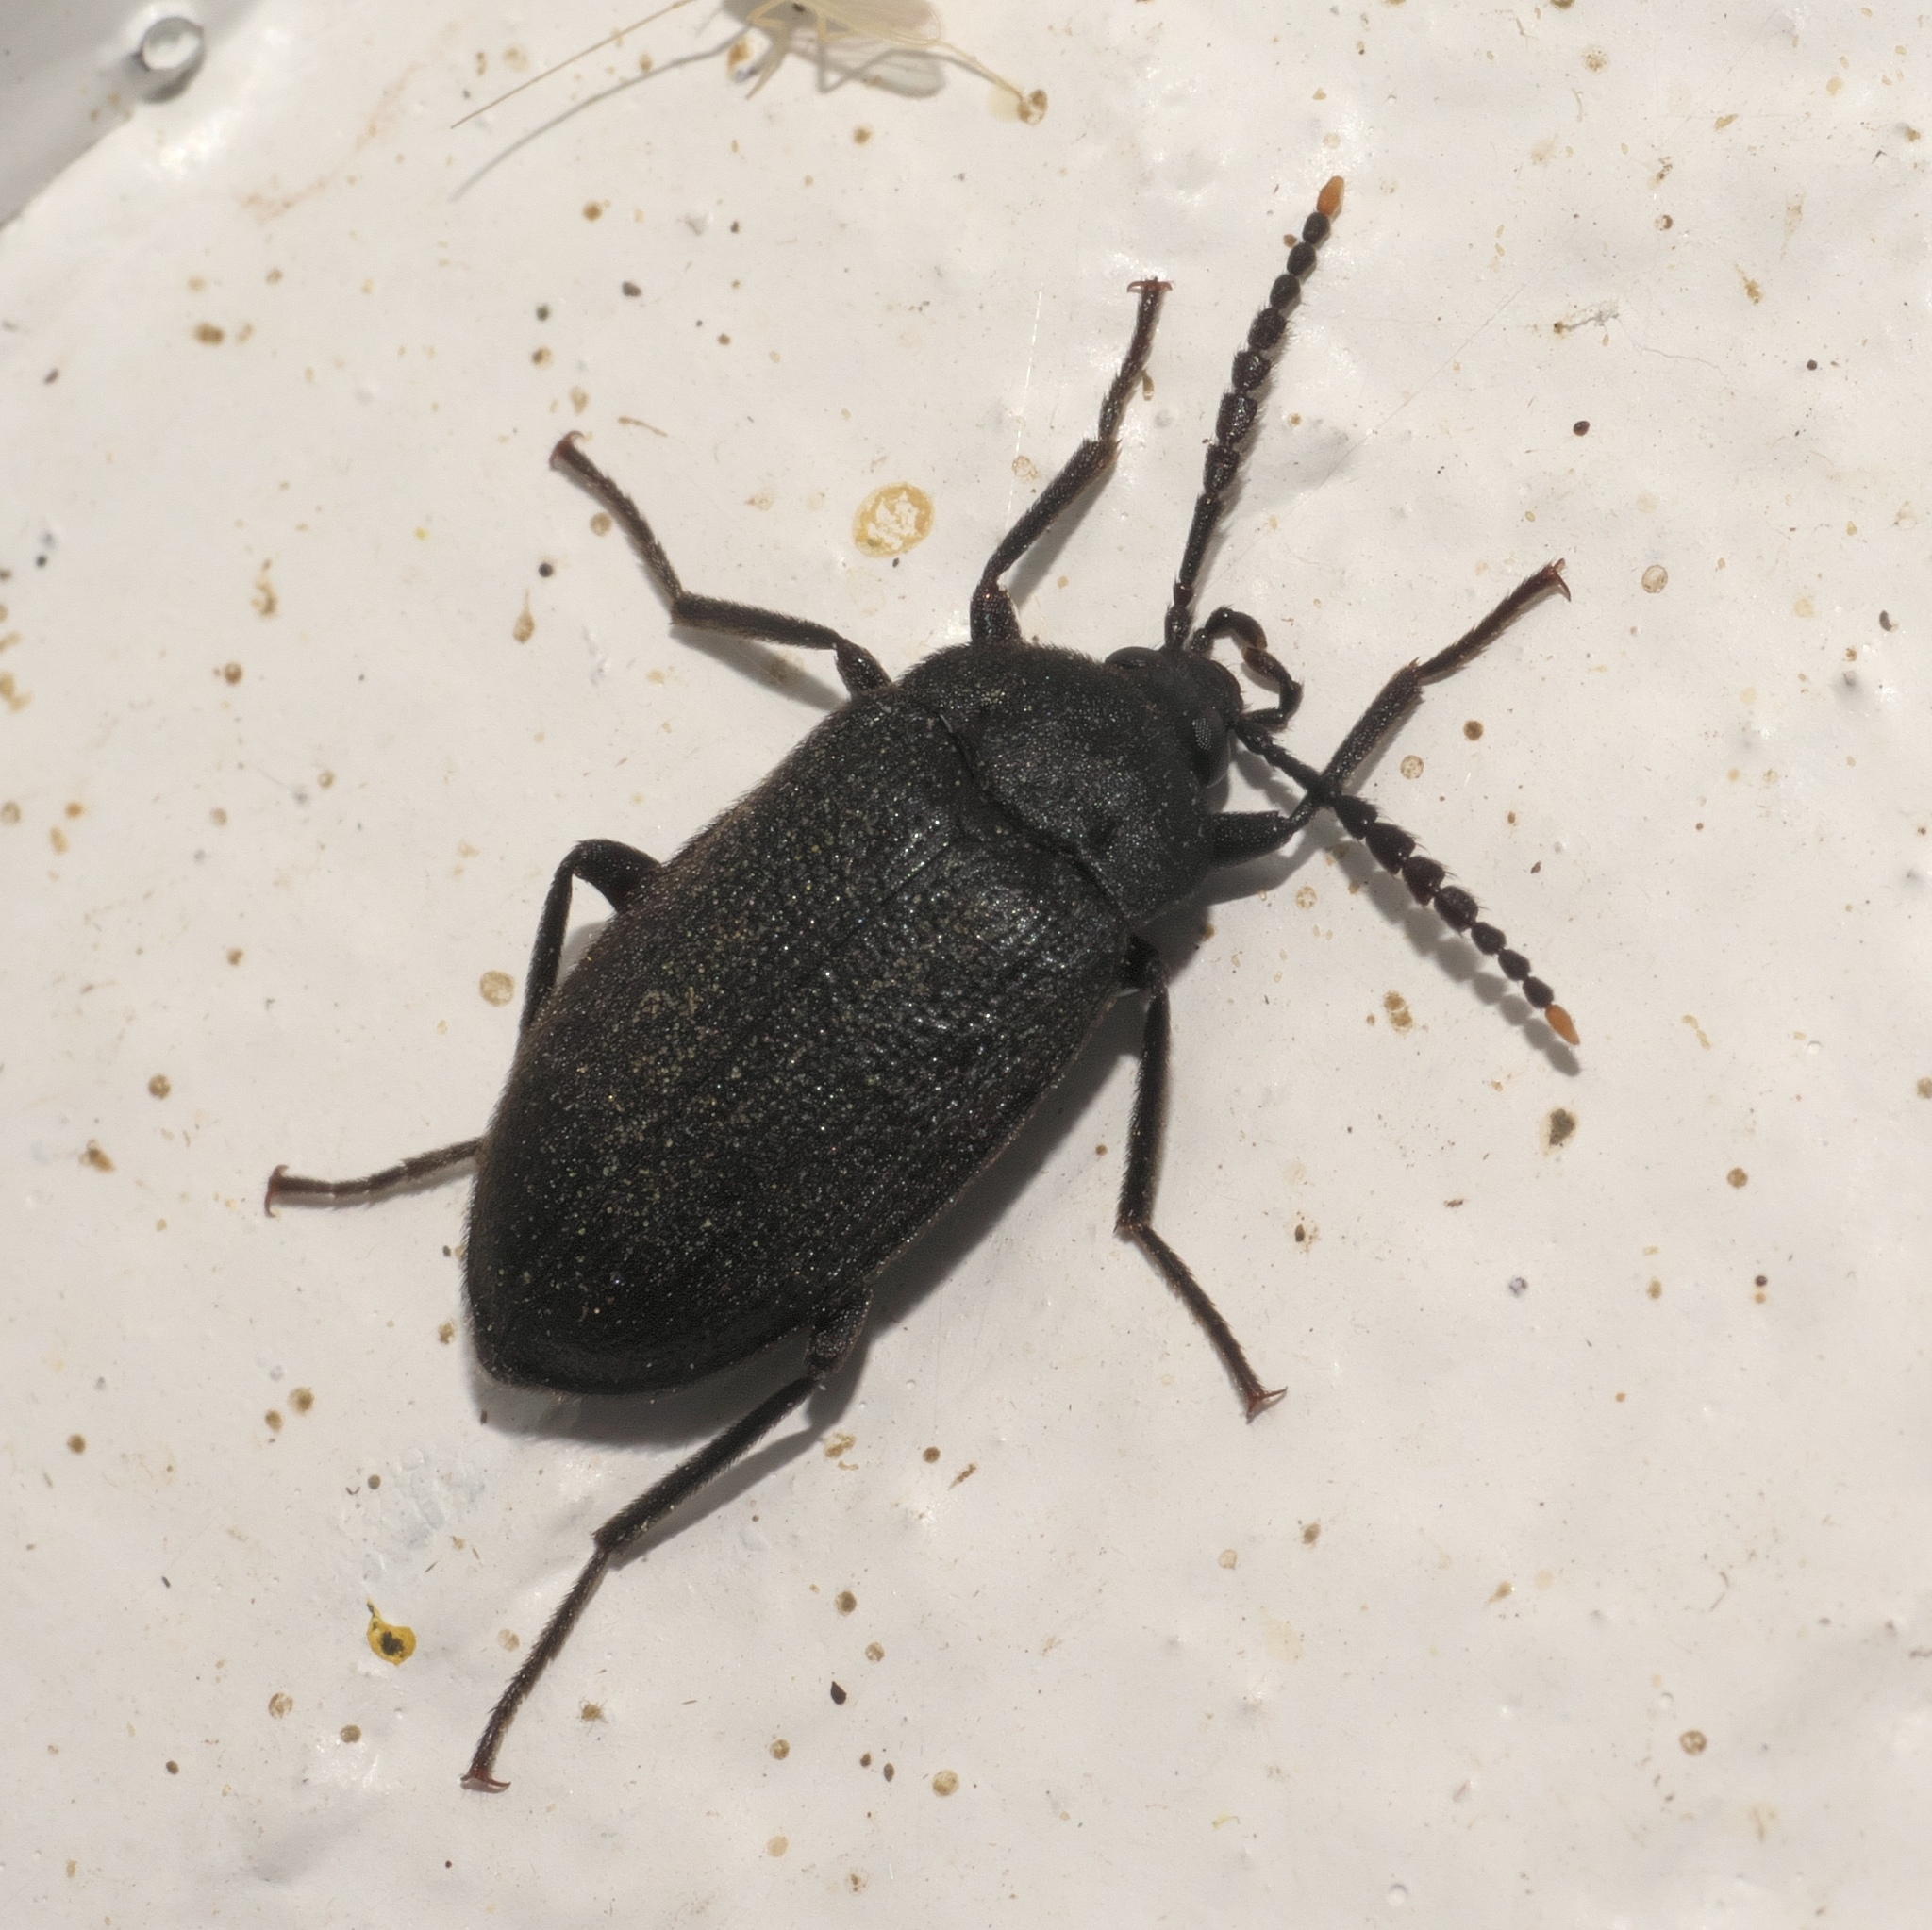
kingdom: Animalia
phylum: Arthropoda
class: Insecta
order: Coleoptera
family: Tetratomidae
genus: Penthe
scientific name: Penthe pimelia
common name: Velvety bark beetle
